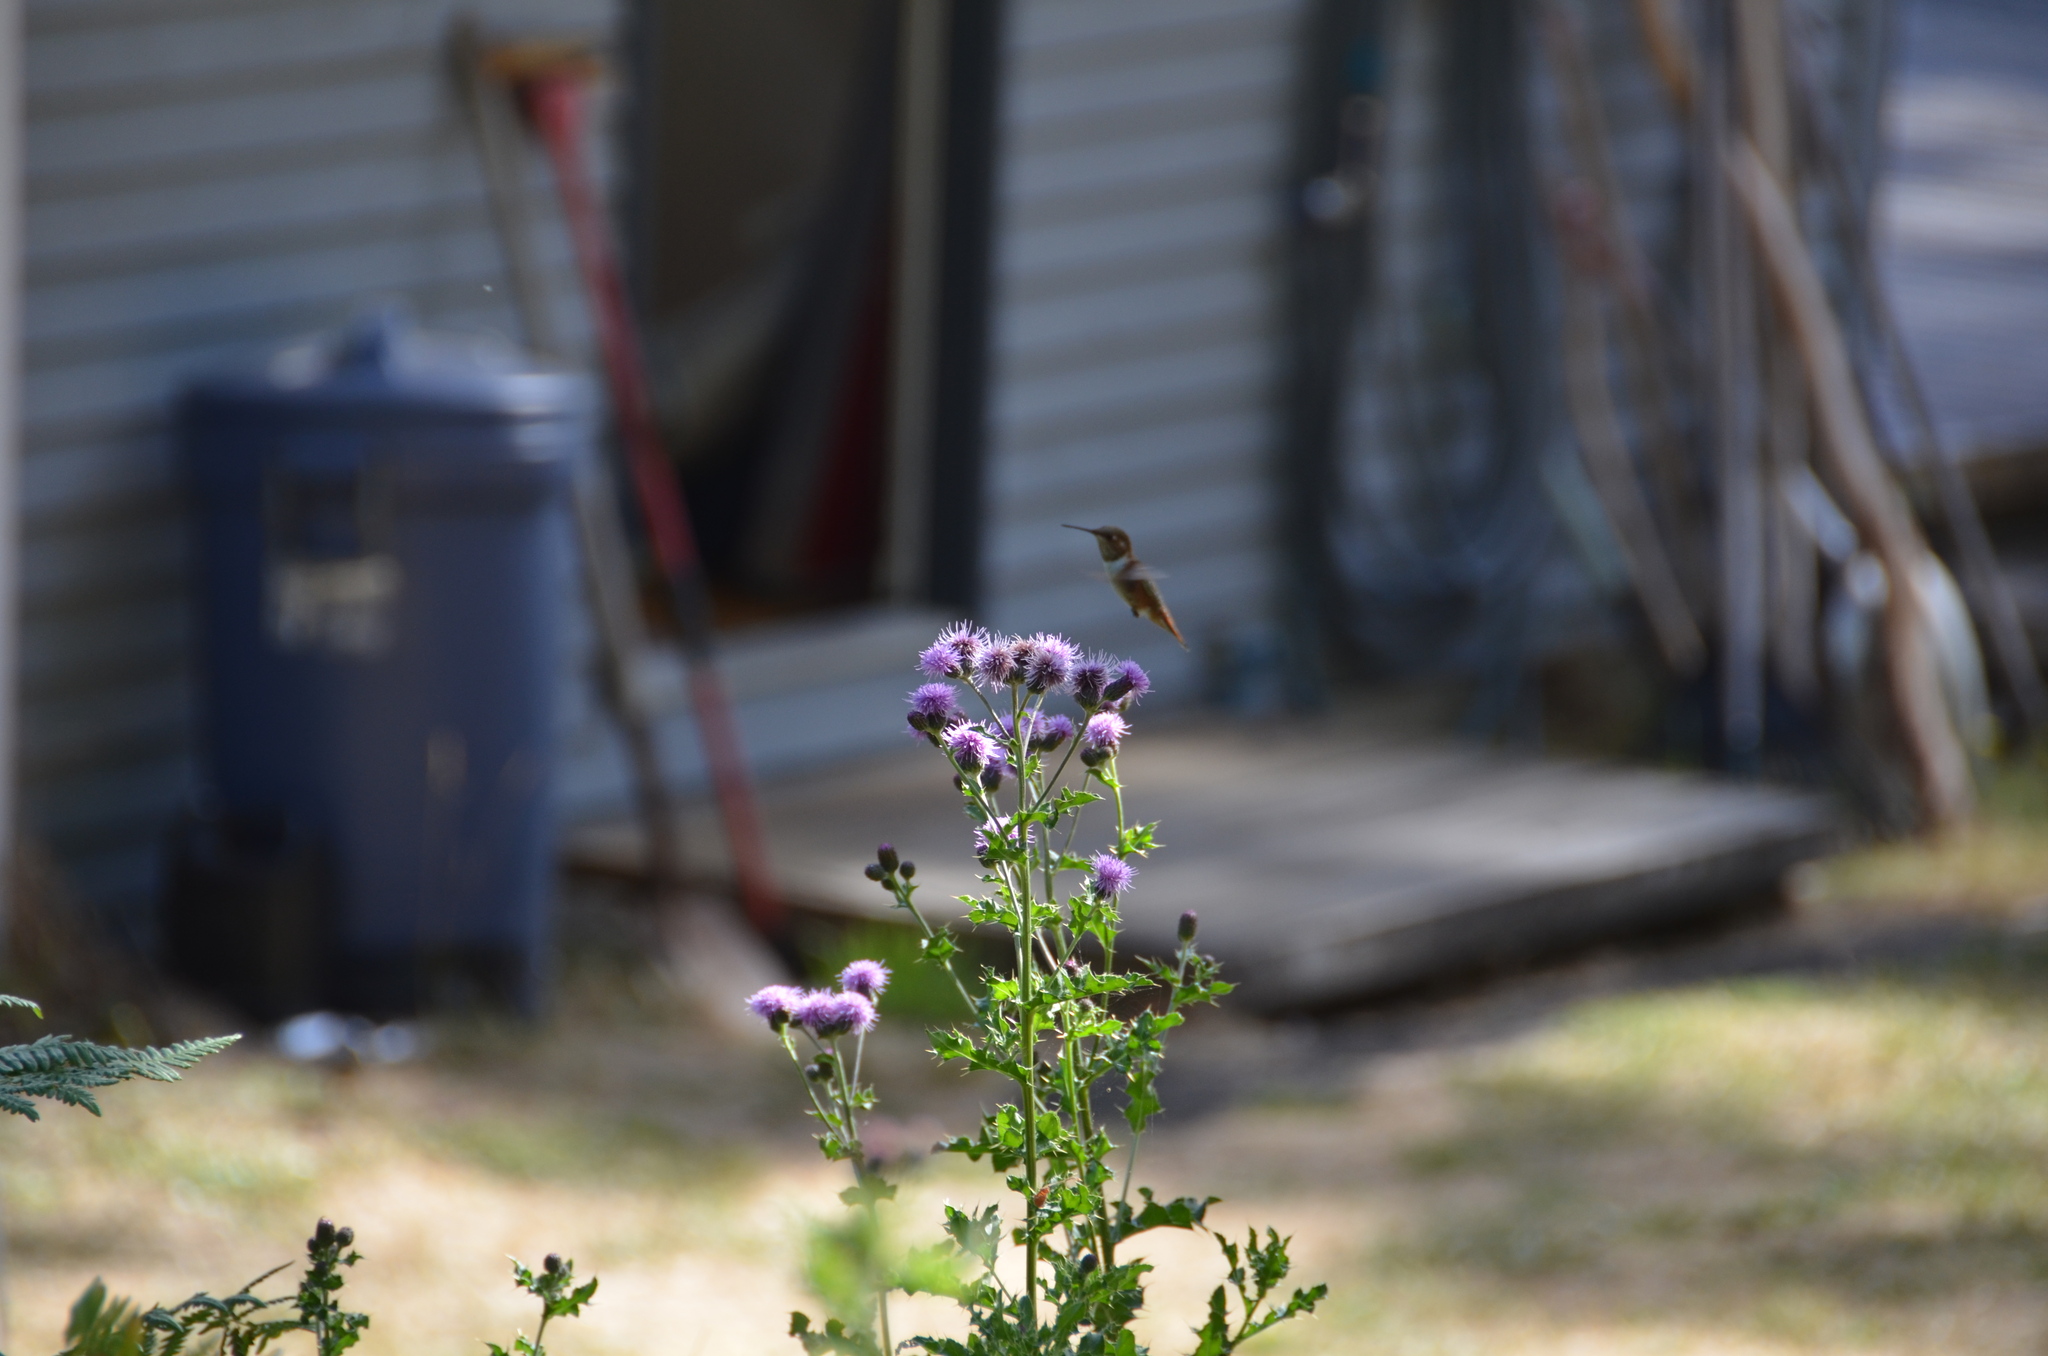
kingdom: Animalia
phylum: Chordata
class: Aves
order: Apodiformes
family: Trochilidae
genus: Selasphorus
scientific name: Selasphorus rufus
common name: Rufous hummingbird
